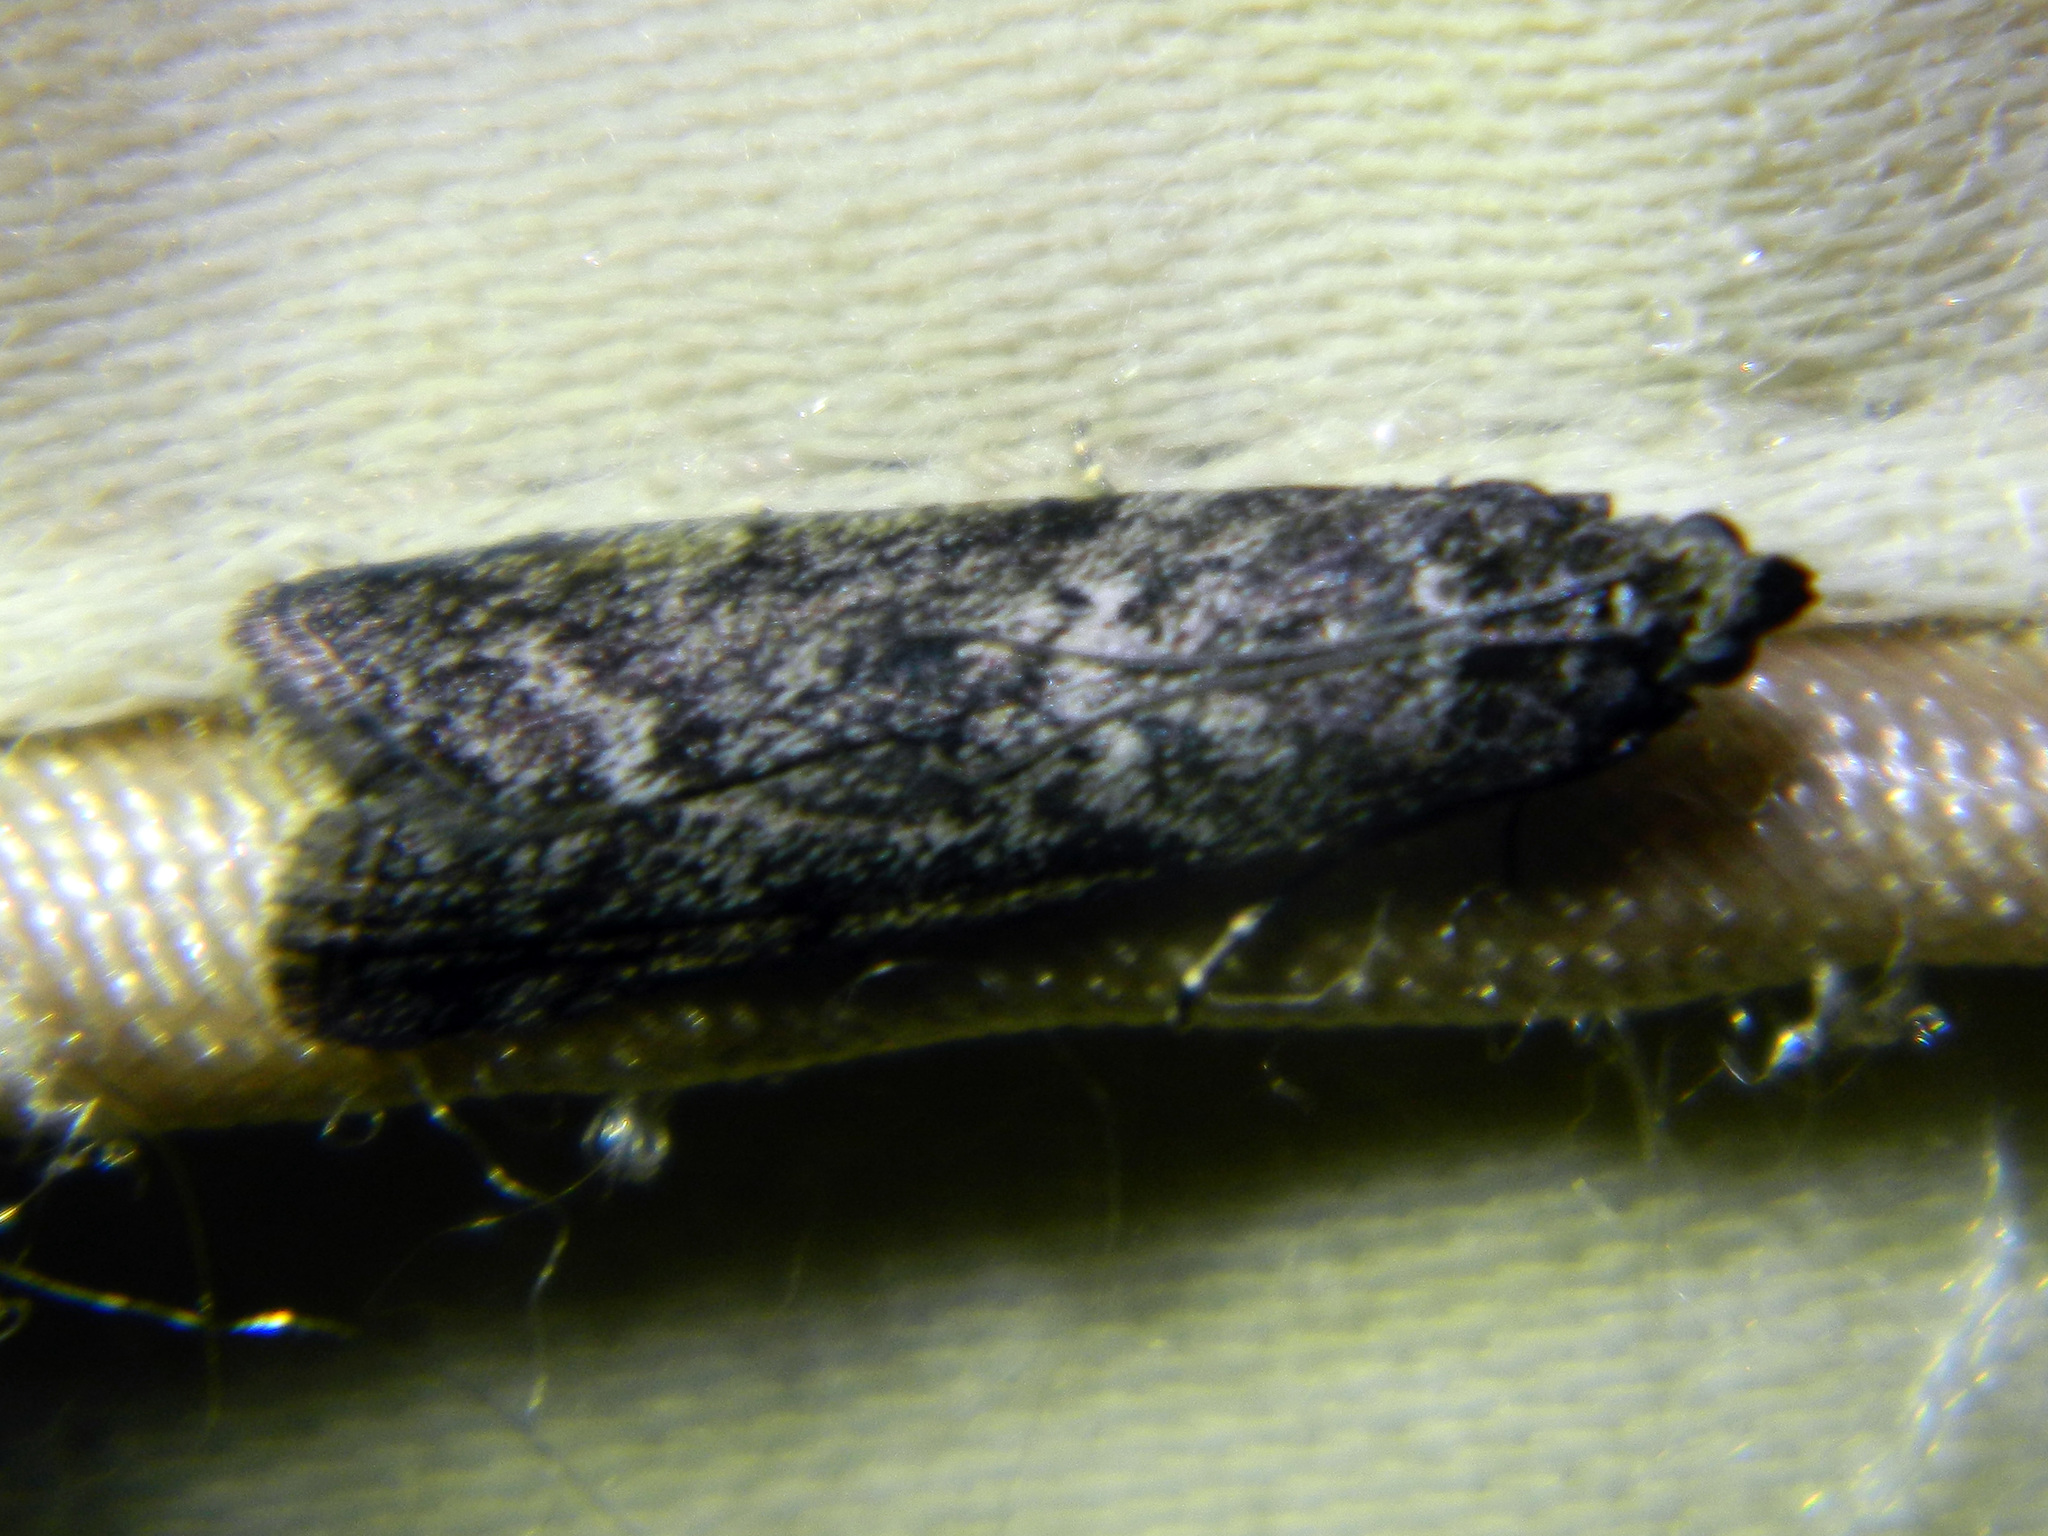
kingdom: Animalia
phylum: Arthropoda
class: Insecta
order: Lepidoptera
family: Pyralidae
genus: Pyla
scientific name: Pyla fusca
